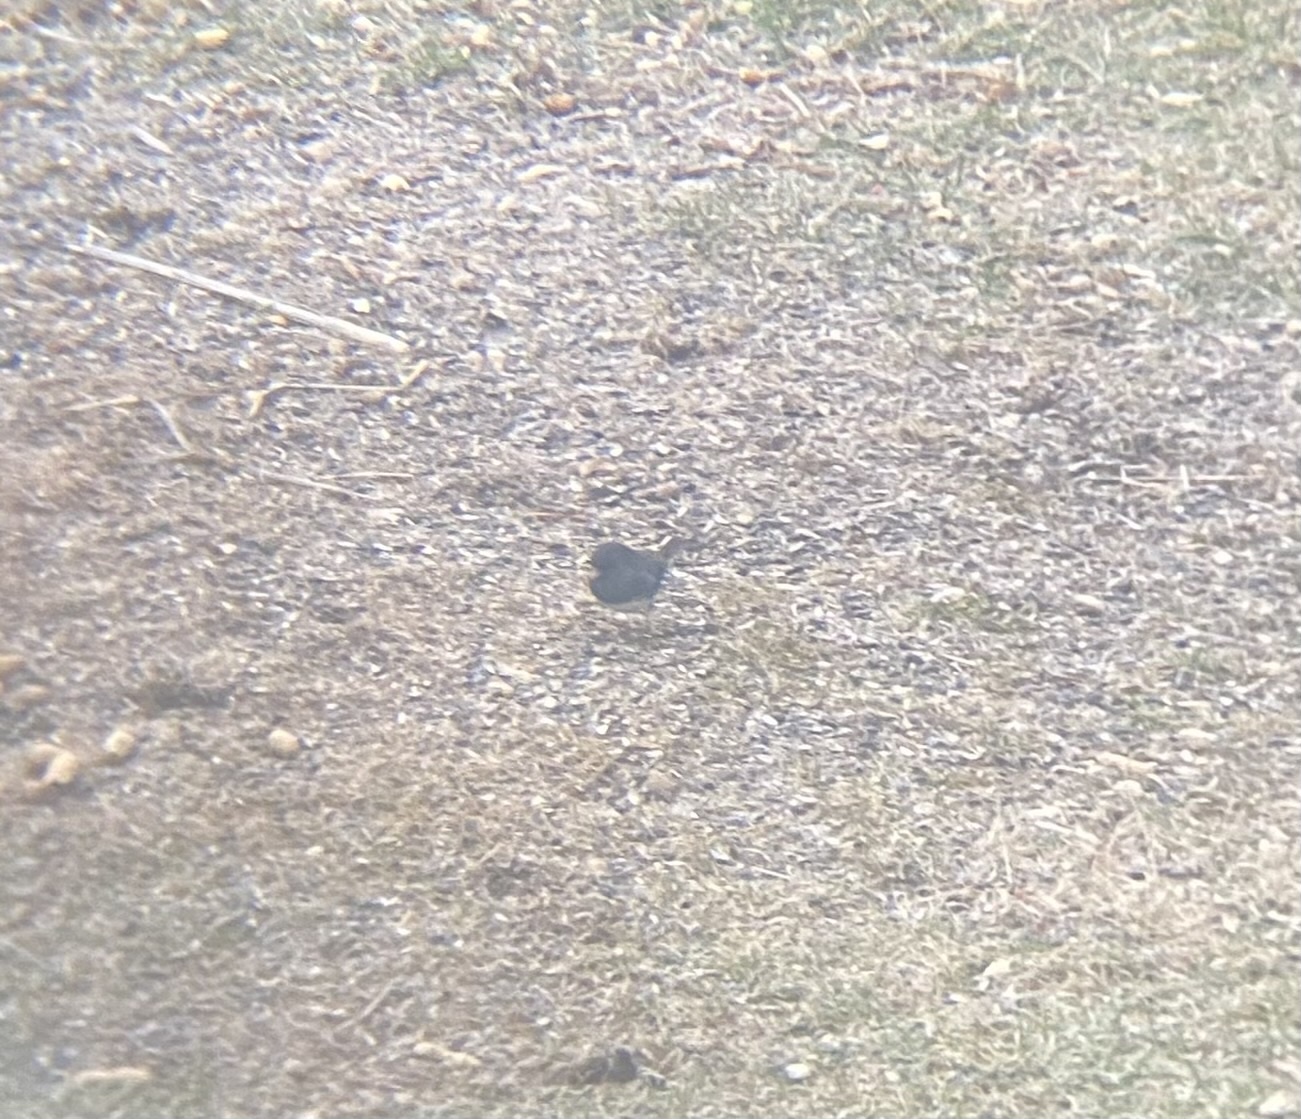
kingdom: Animalia
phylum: Chordata
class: Aves
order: Passeriformes
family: Passerellidae
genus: Junco
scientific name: Junco hyemalis
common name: Dark-eyed junco
